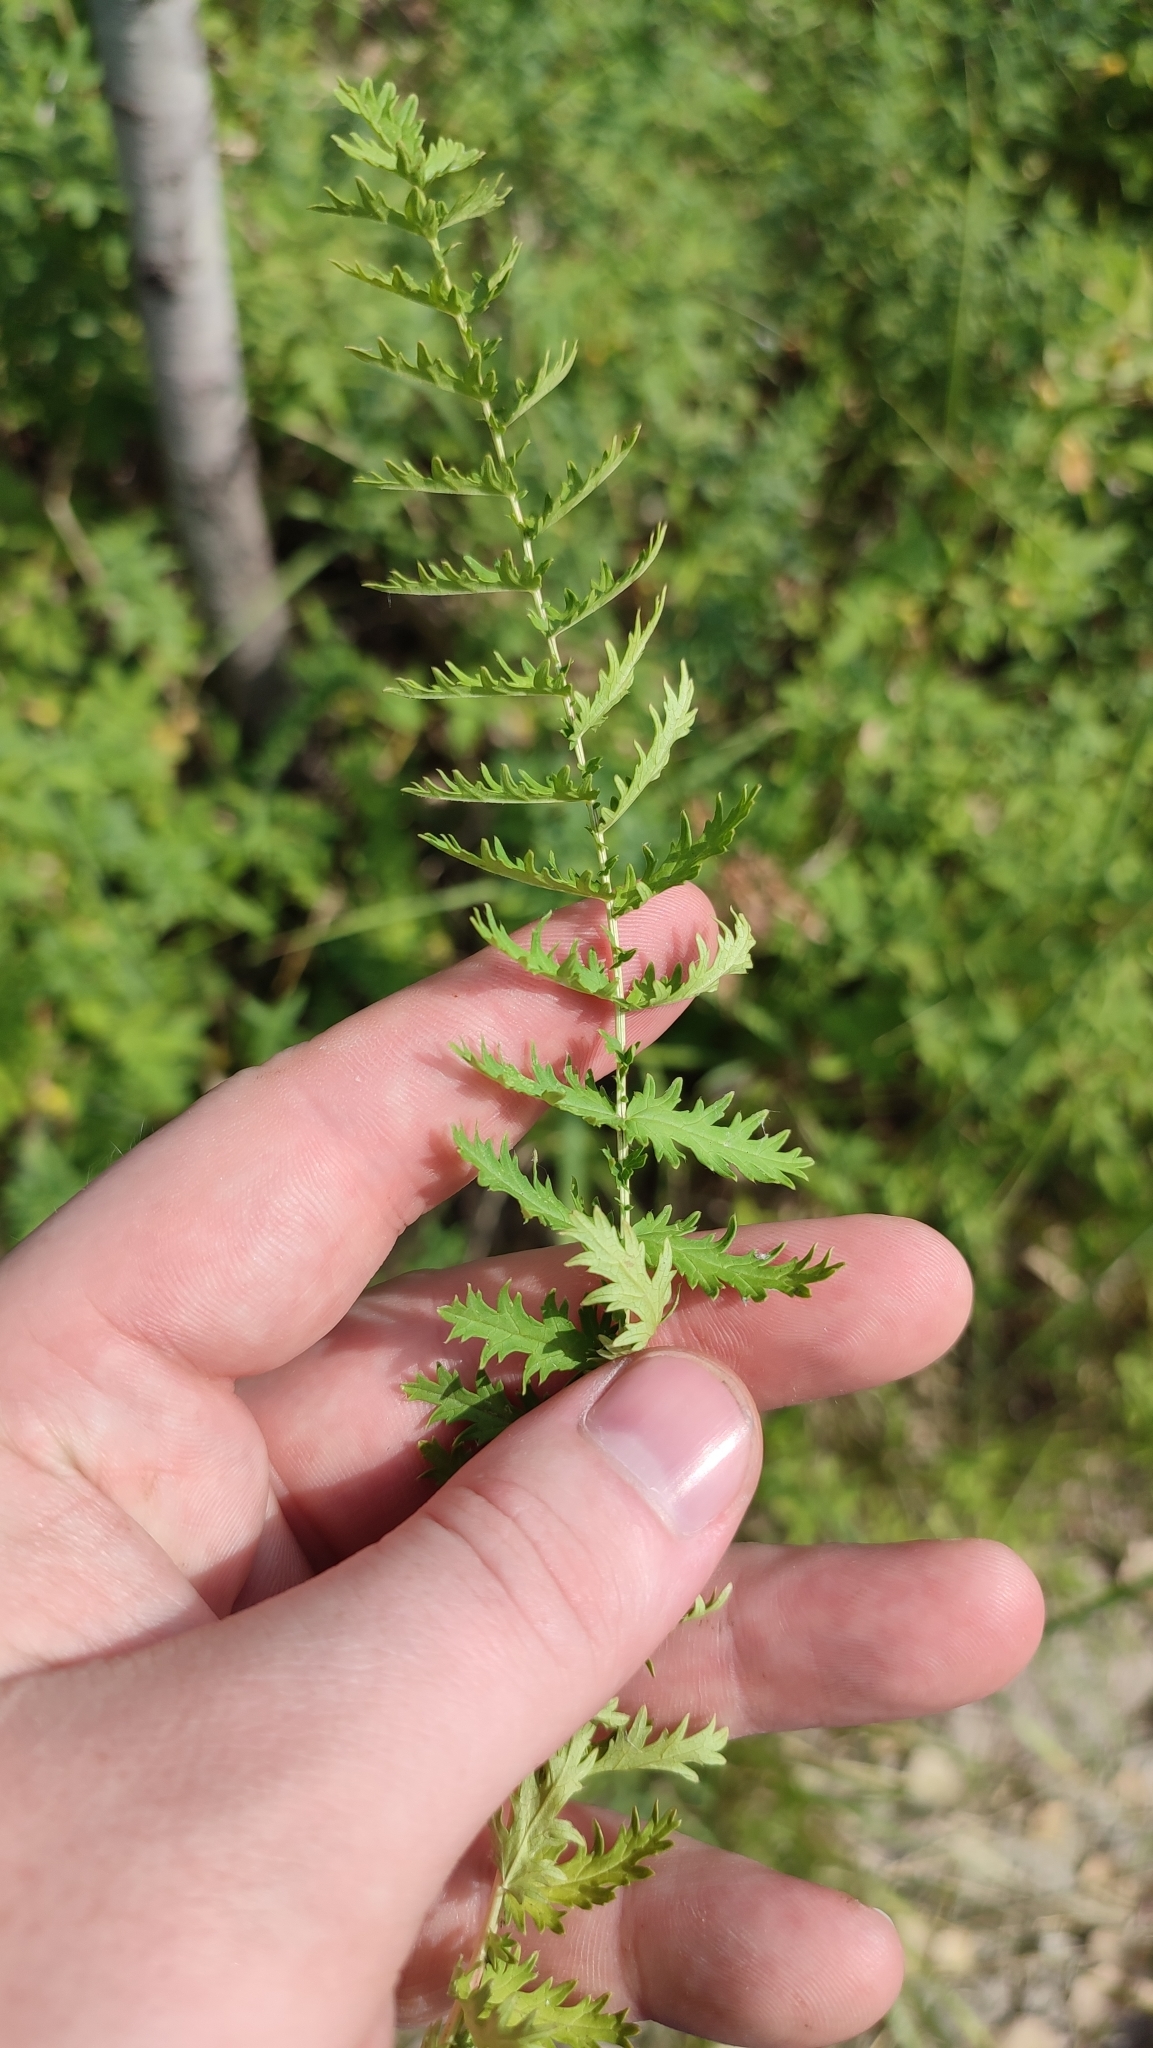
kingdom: Plantae
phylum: Tracheophyta
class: Magnoliopsida
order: Rosales
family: Rosaceae
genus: Filipendula
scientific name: Filipendula vulgaris
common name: Dropwort
